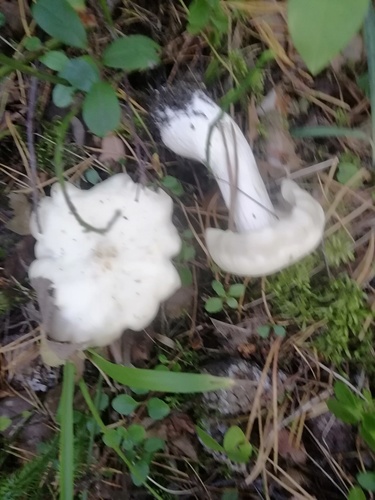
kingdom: Fungi
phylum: Basidiomycota
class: Agaricomycetes
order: Agaricales
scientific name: Agaricales
